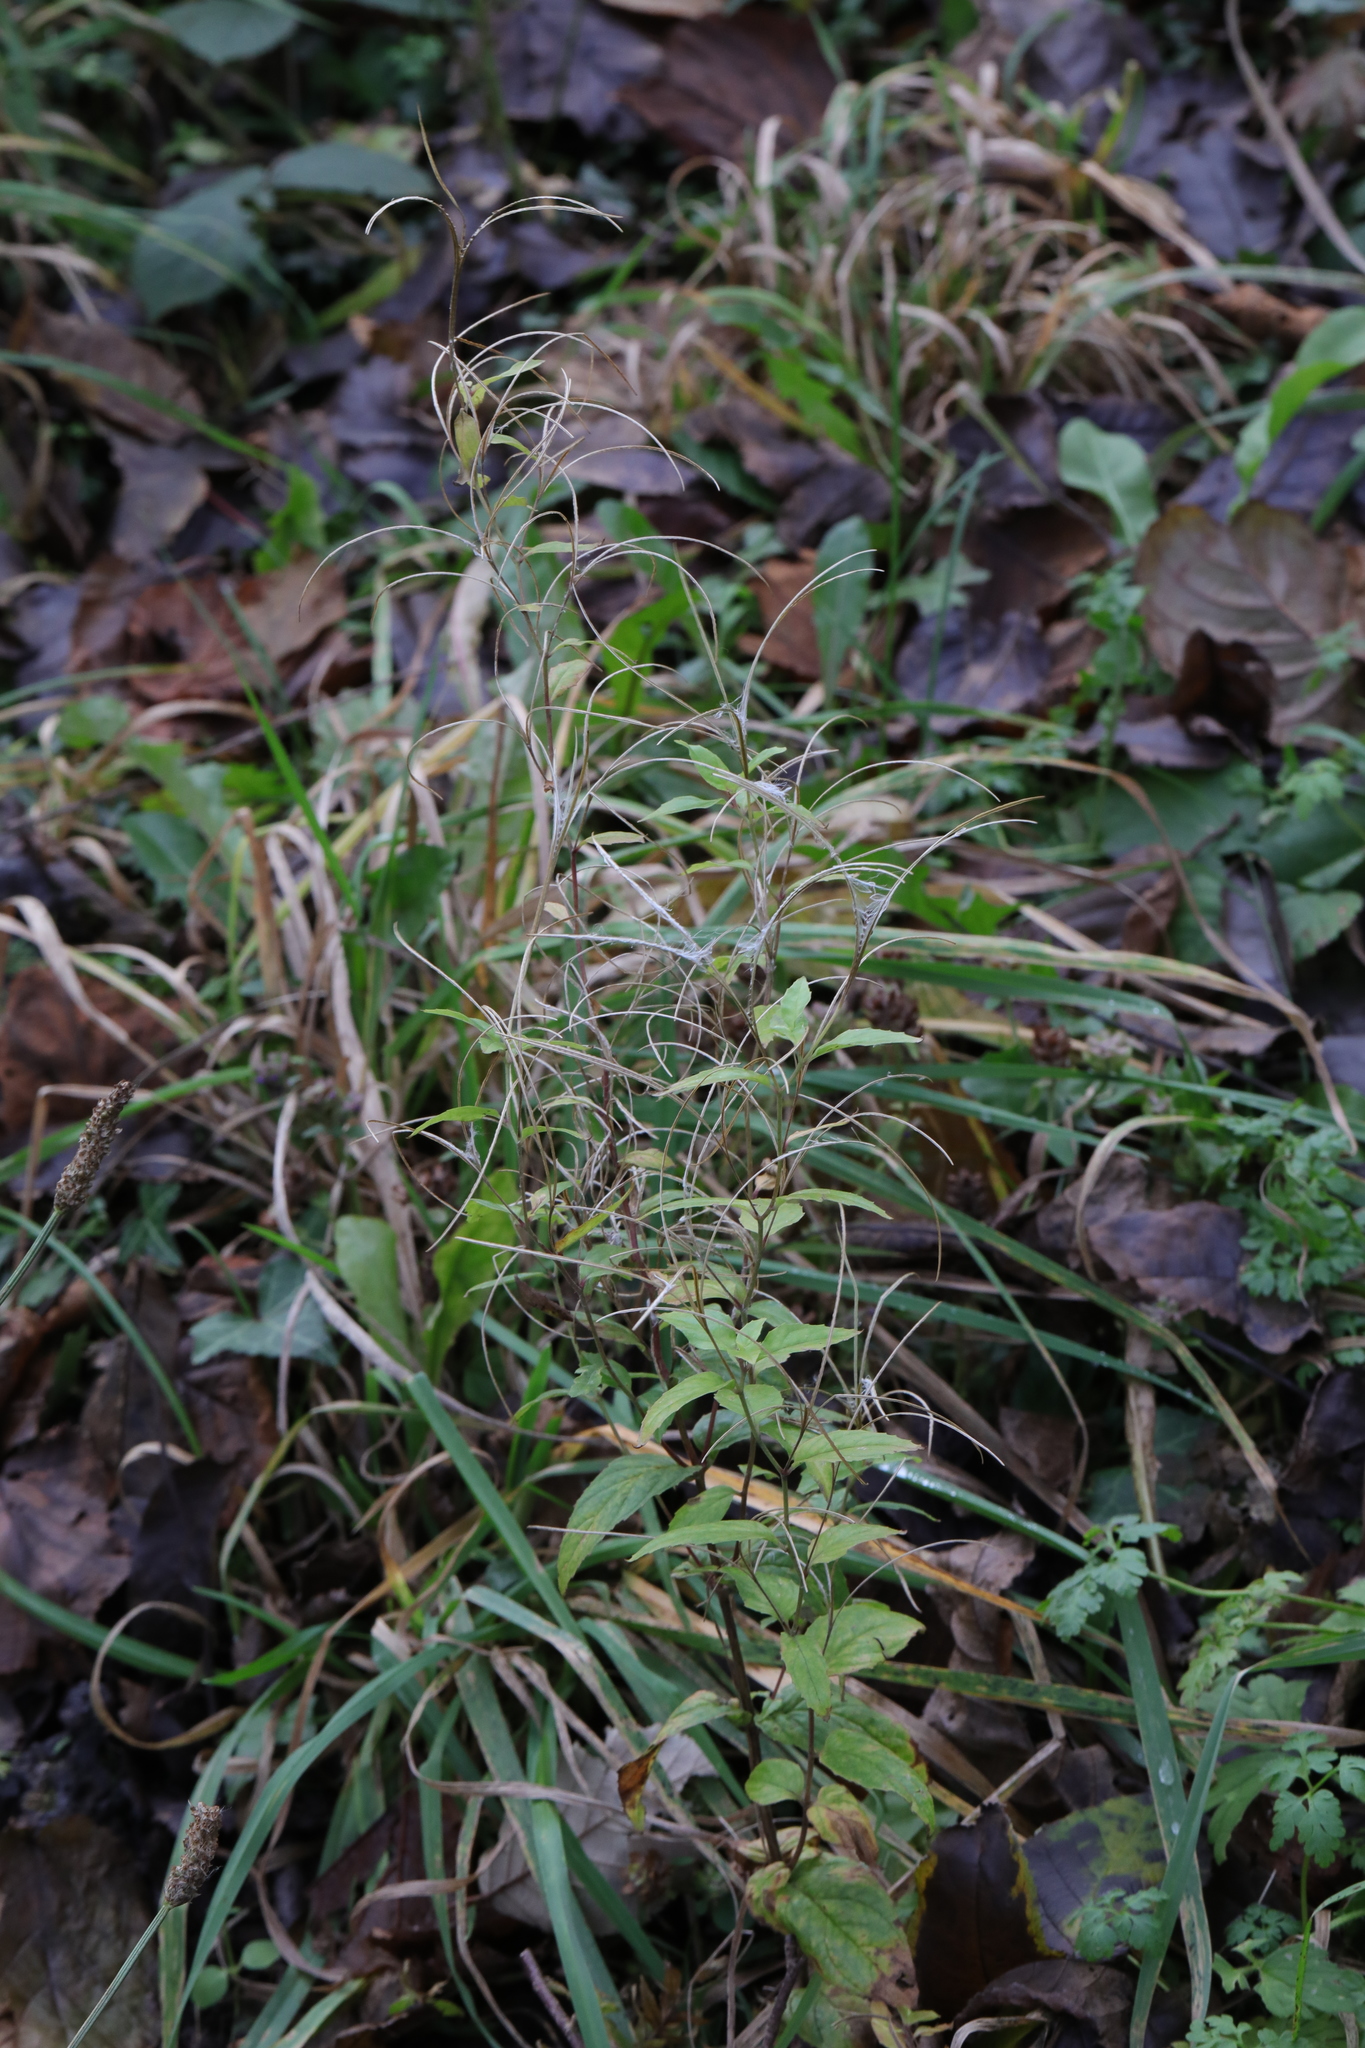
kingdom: Plantae
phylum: Tracheophyta
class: Magnoliopsida
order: Myrtales
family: Onagraceae
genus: Epilobium
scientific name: Epilobium montanum
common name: Broad-leaved willowherb
